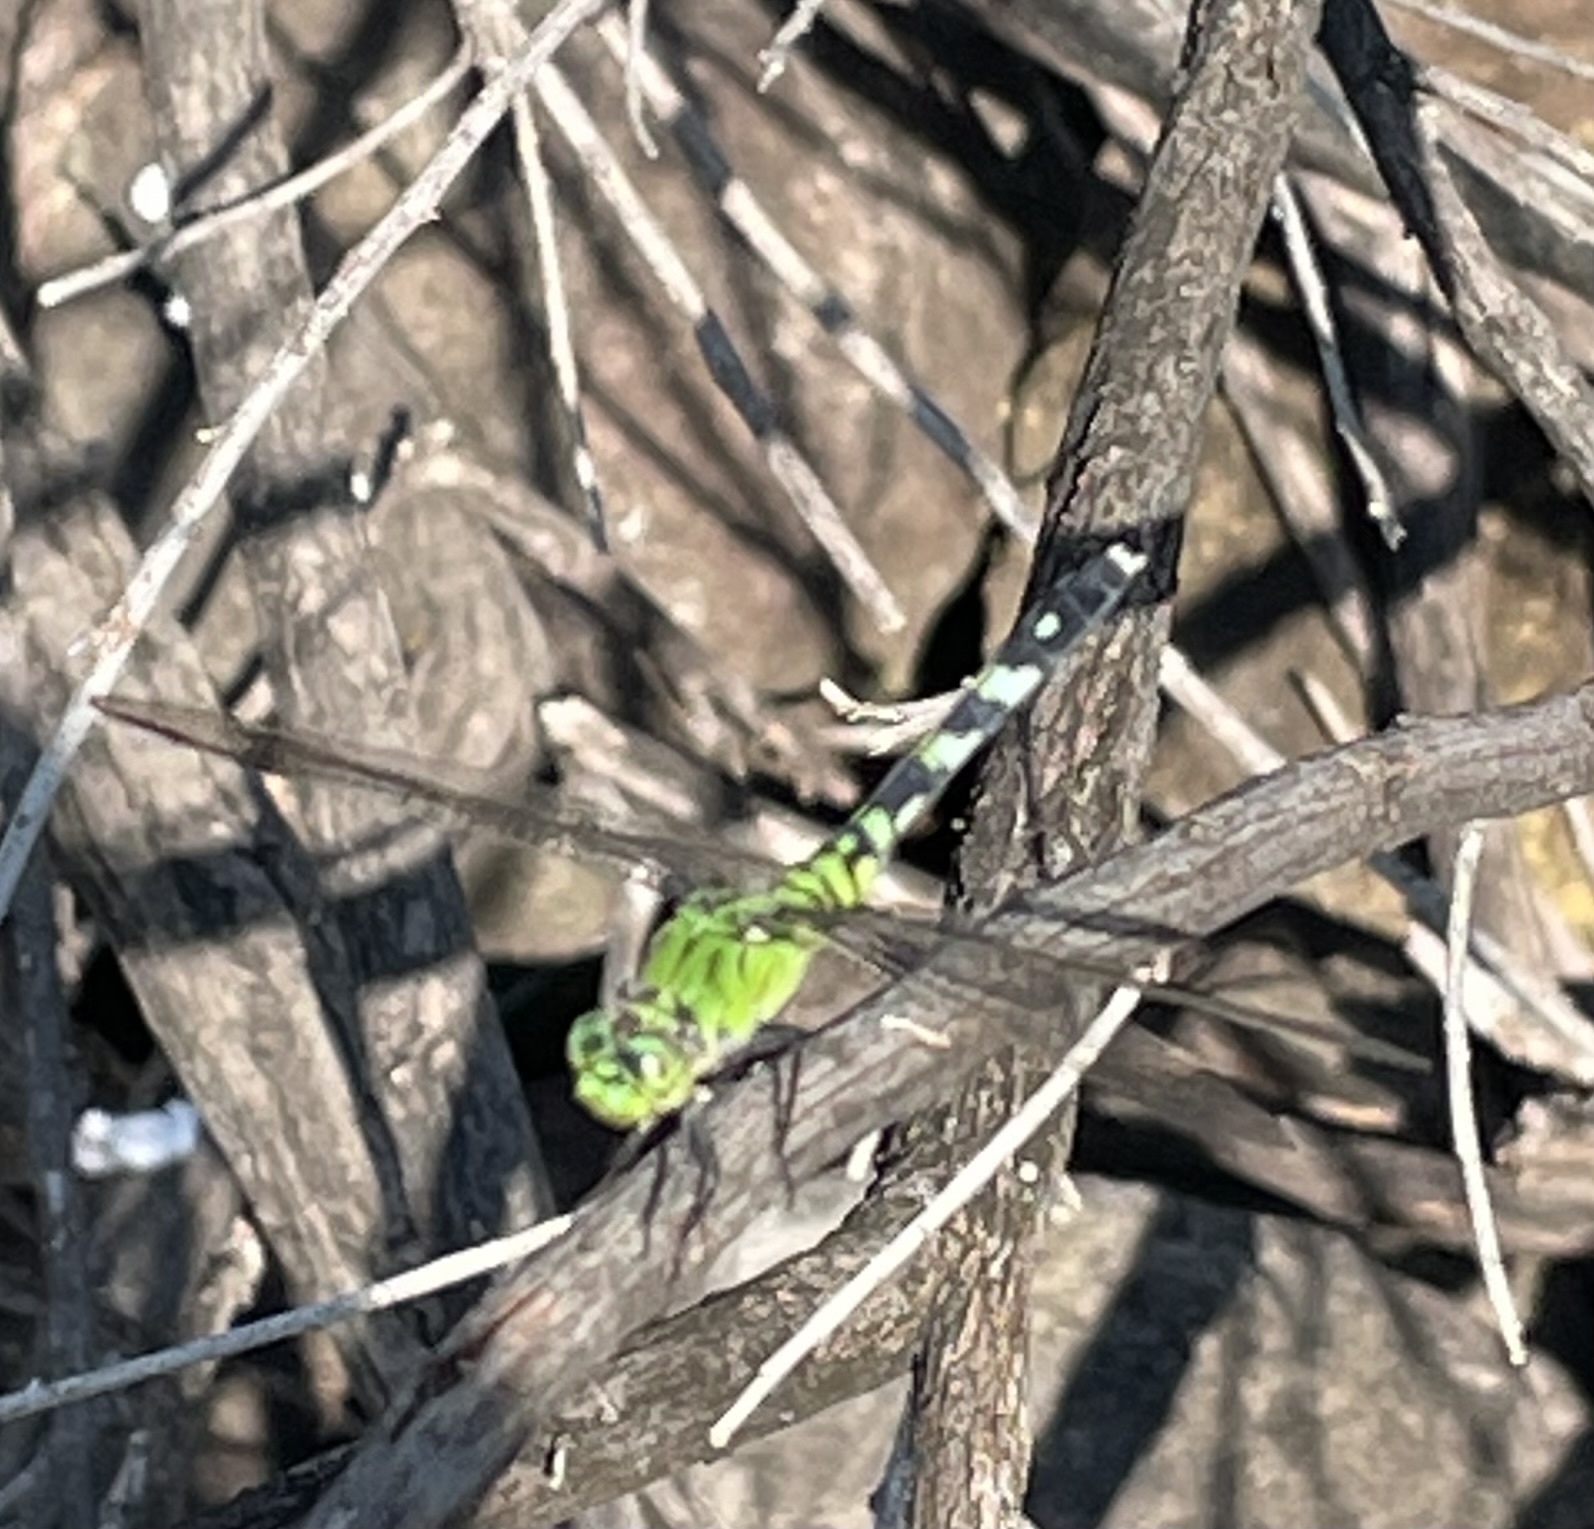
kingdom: Animalia
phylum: Arthropoda
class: Insecta
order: Odonata
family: Libellulidae
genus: Erythemis
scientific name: Erythemis simplicicollis
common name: Eastern pondhawk
